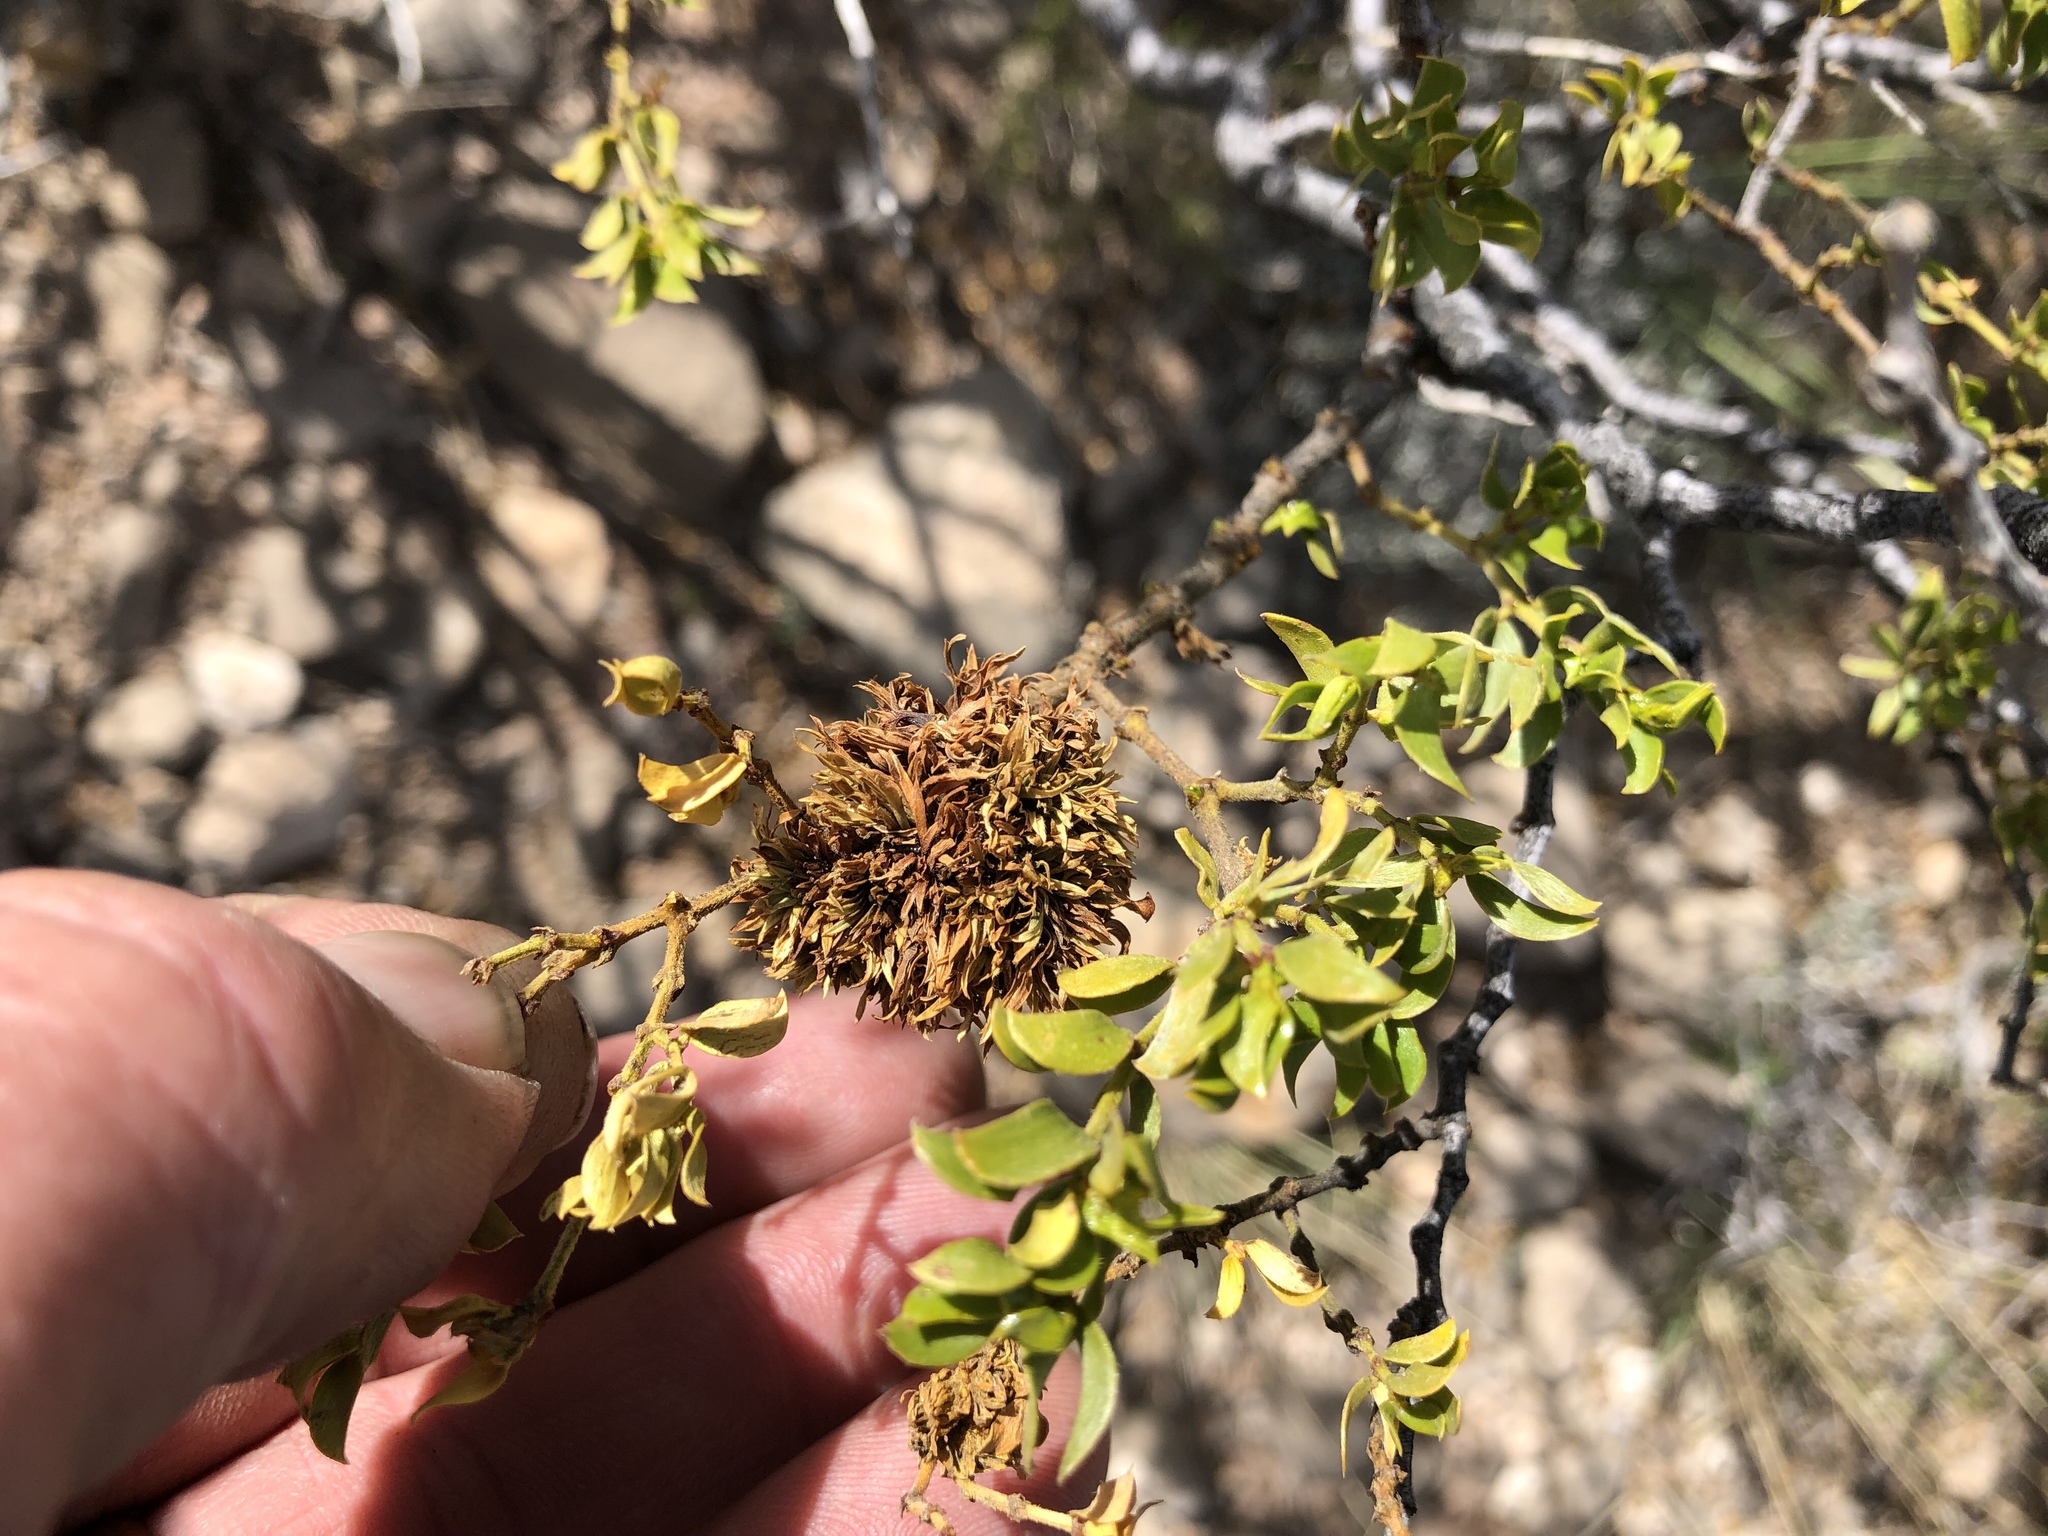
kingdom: Animalia
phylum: Arthropoda
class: Insecta
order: Diptera
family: Cecidomyiidae
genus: Asphondylia
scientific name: Asphondylia auripila
